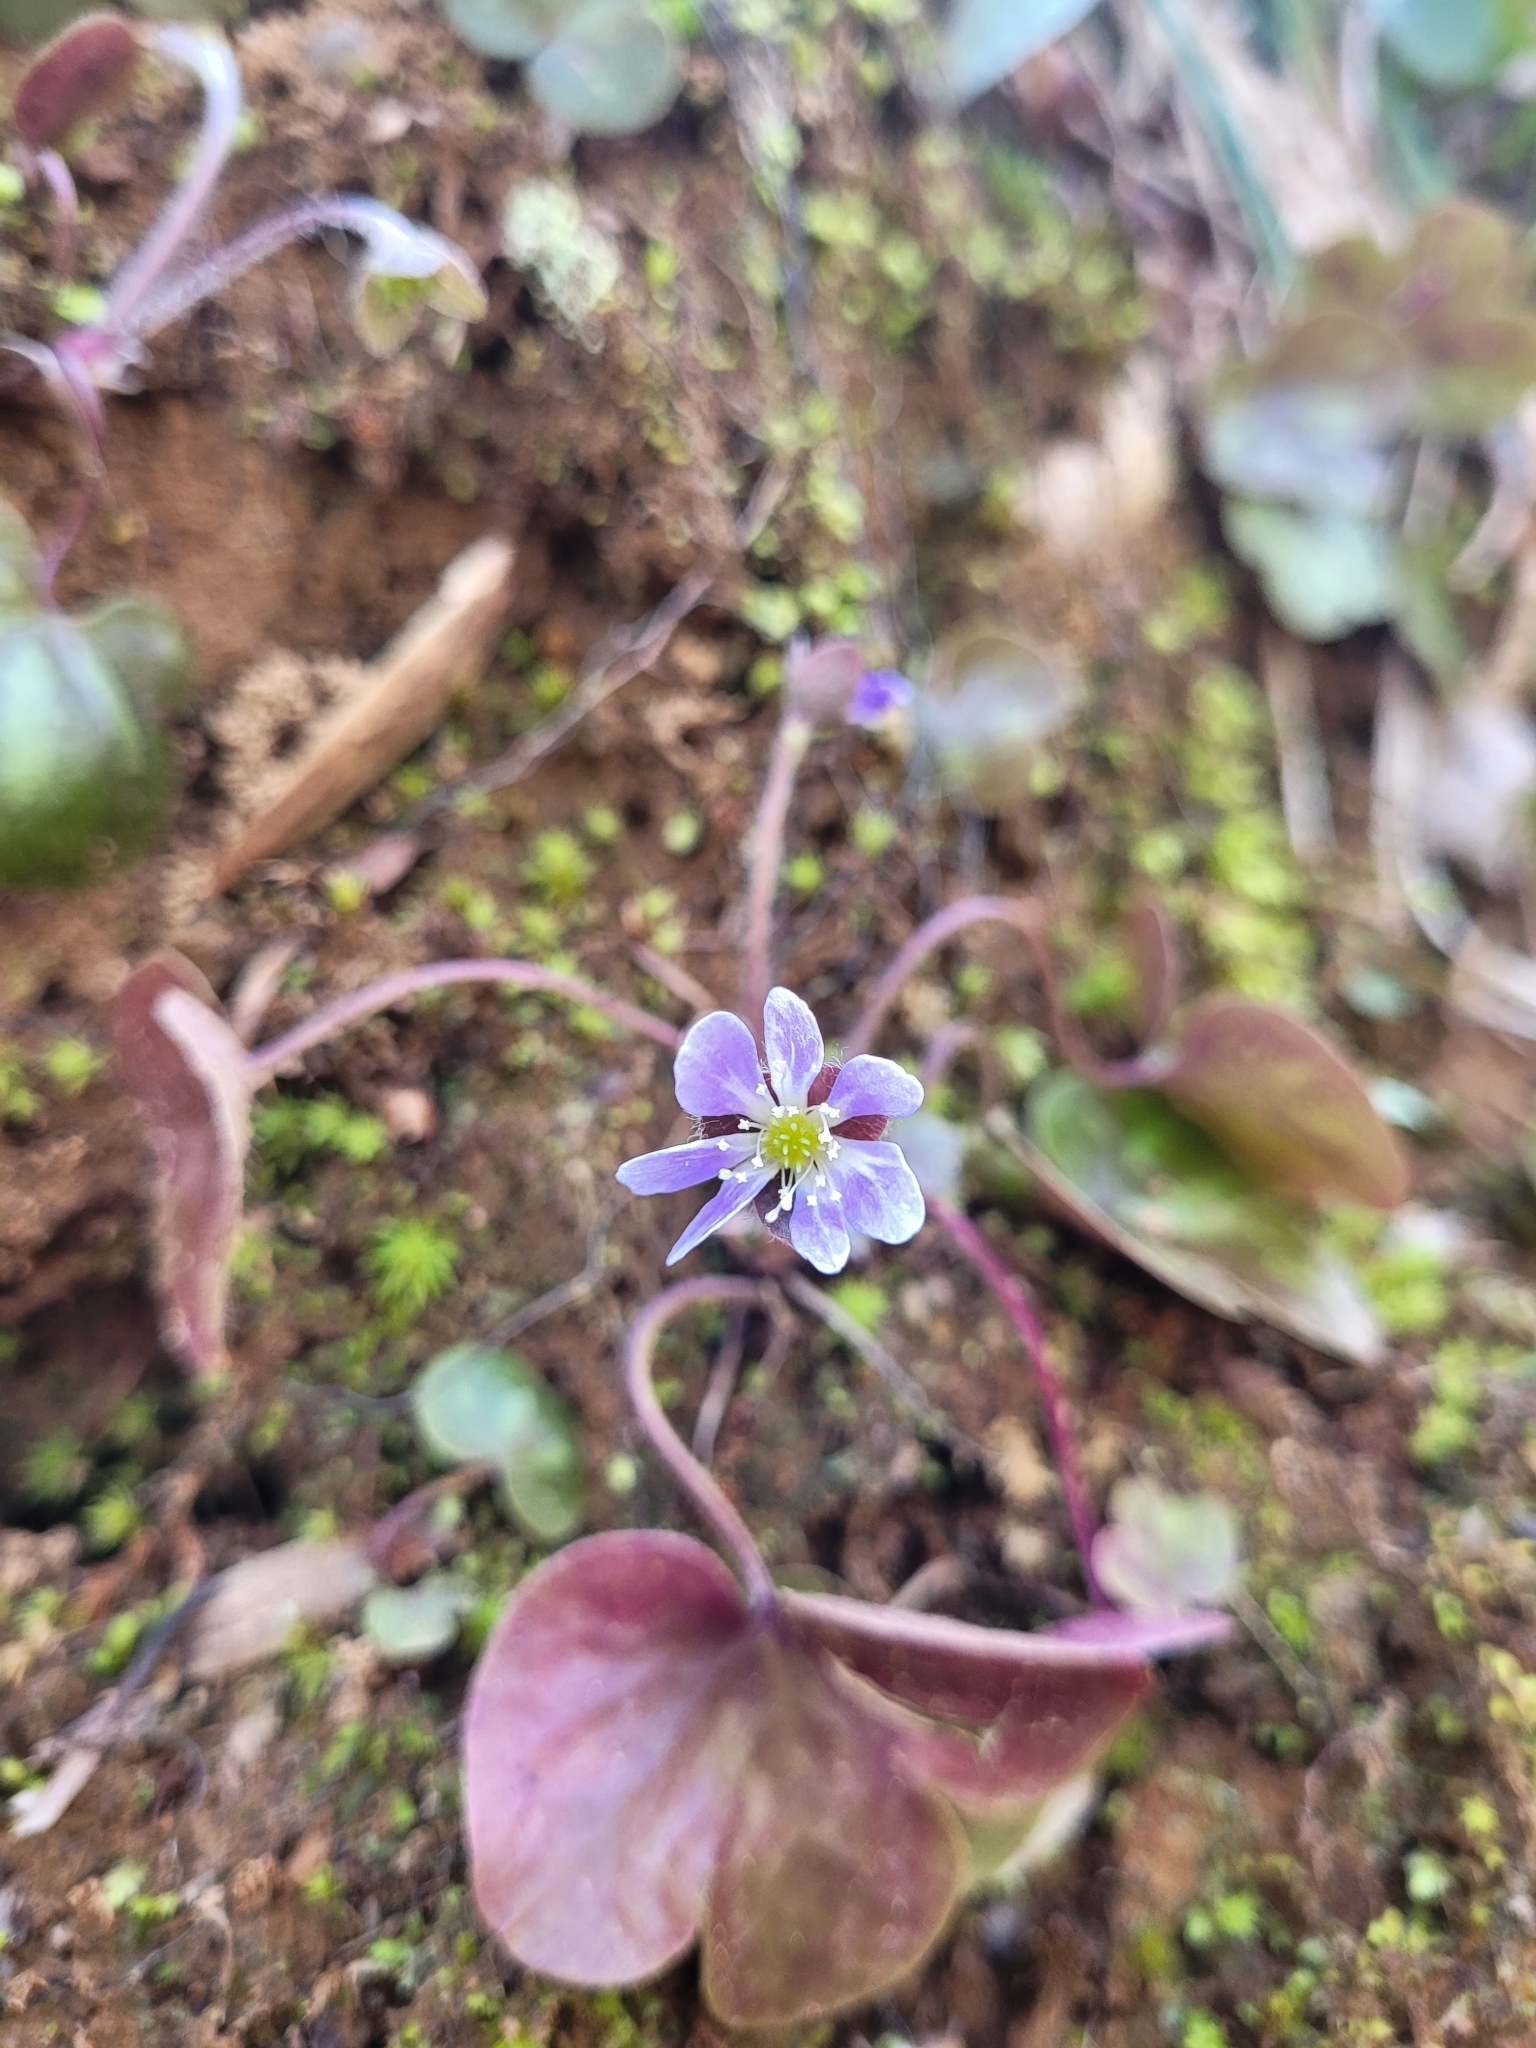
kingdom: Plantae
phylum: Tracheophyta
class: Magnoliopsida
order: Ranunculales
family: Ranunculaceae
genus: Hepatica
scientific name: Hepatica americana
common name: American hepatica
